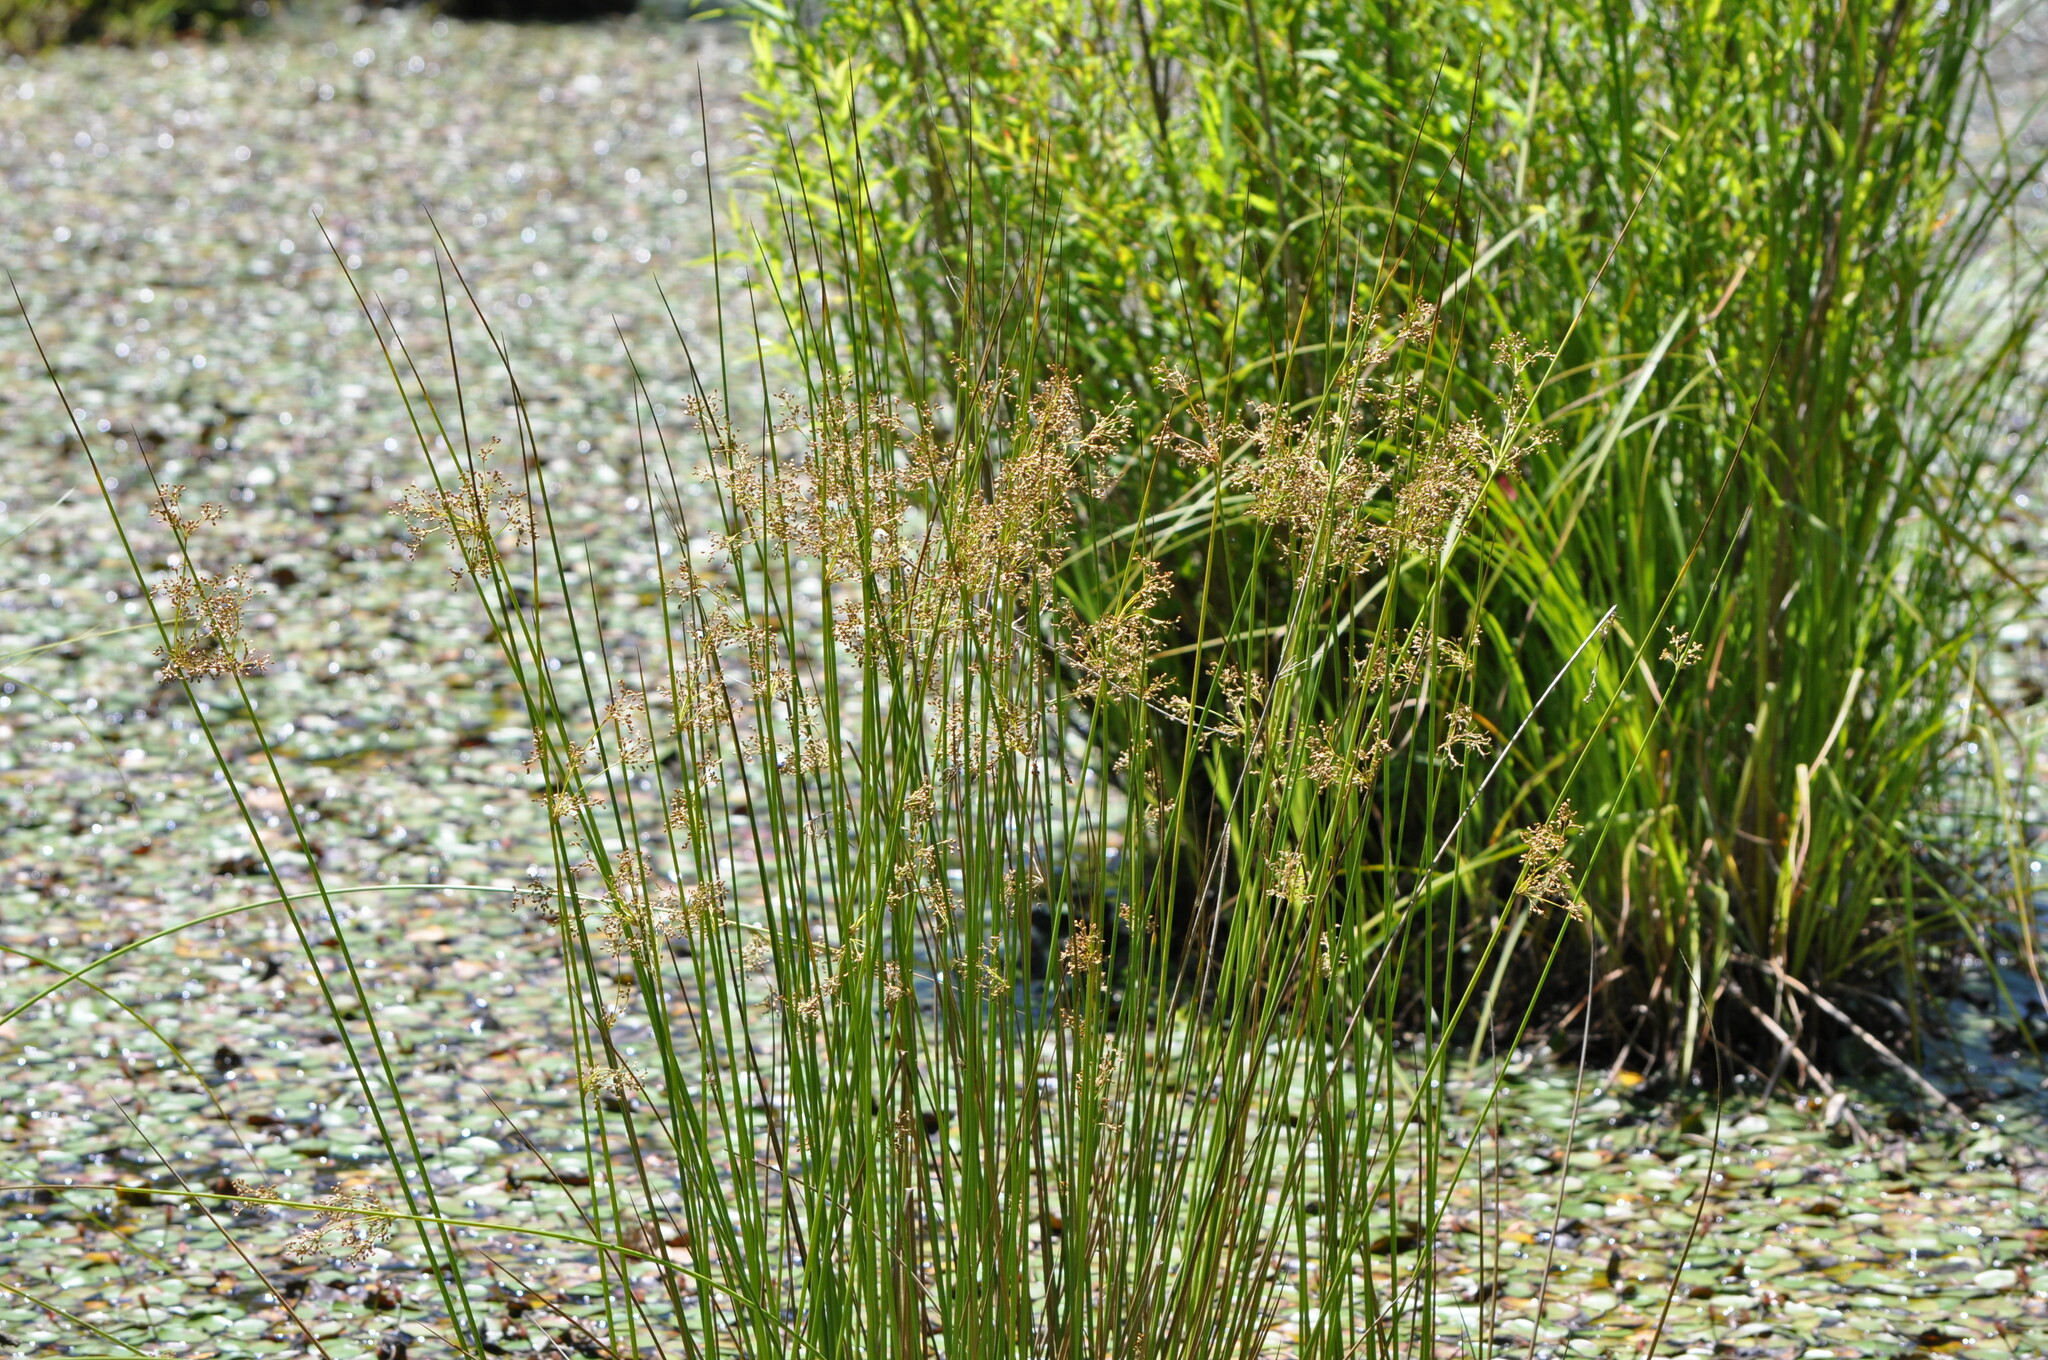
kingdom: Plantae
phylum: Tracheophyta
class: Liliopsida
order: Poales
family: Juncaceae
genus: Juncus
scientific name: Juncus effusus
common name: Soft rush
